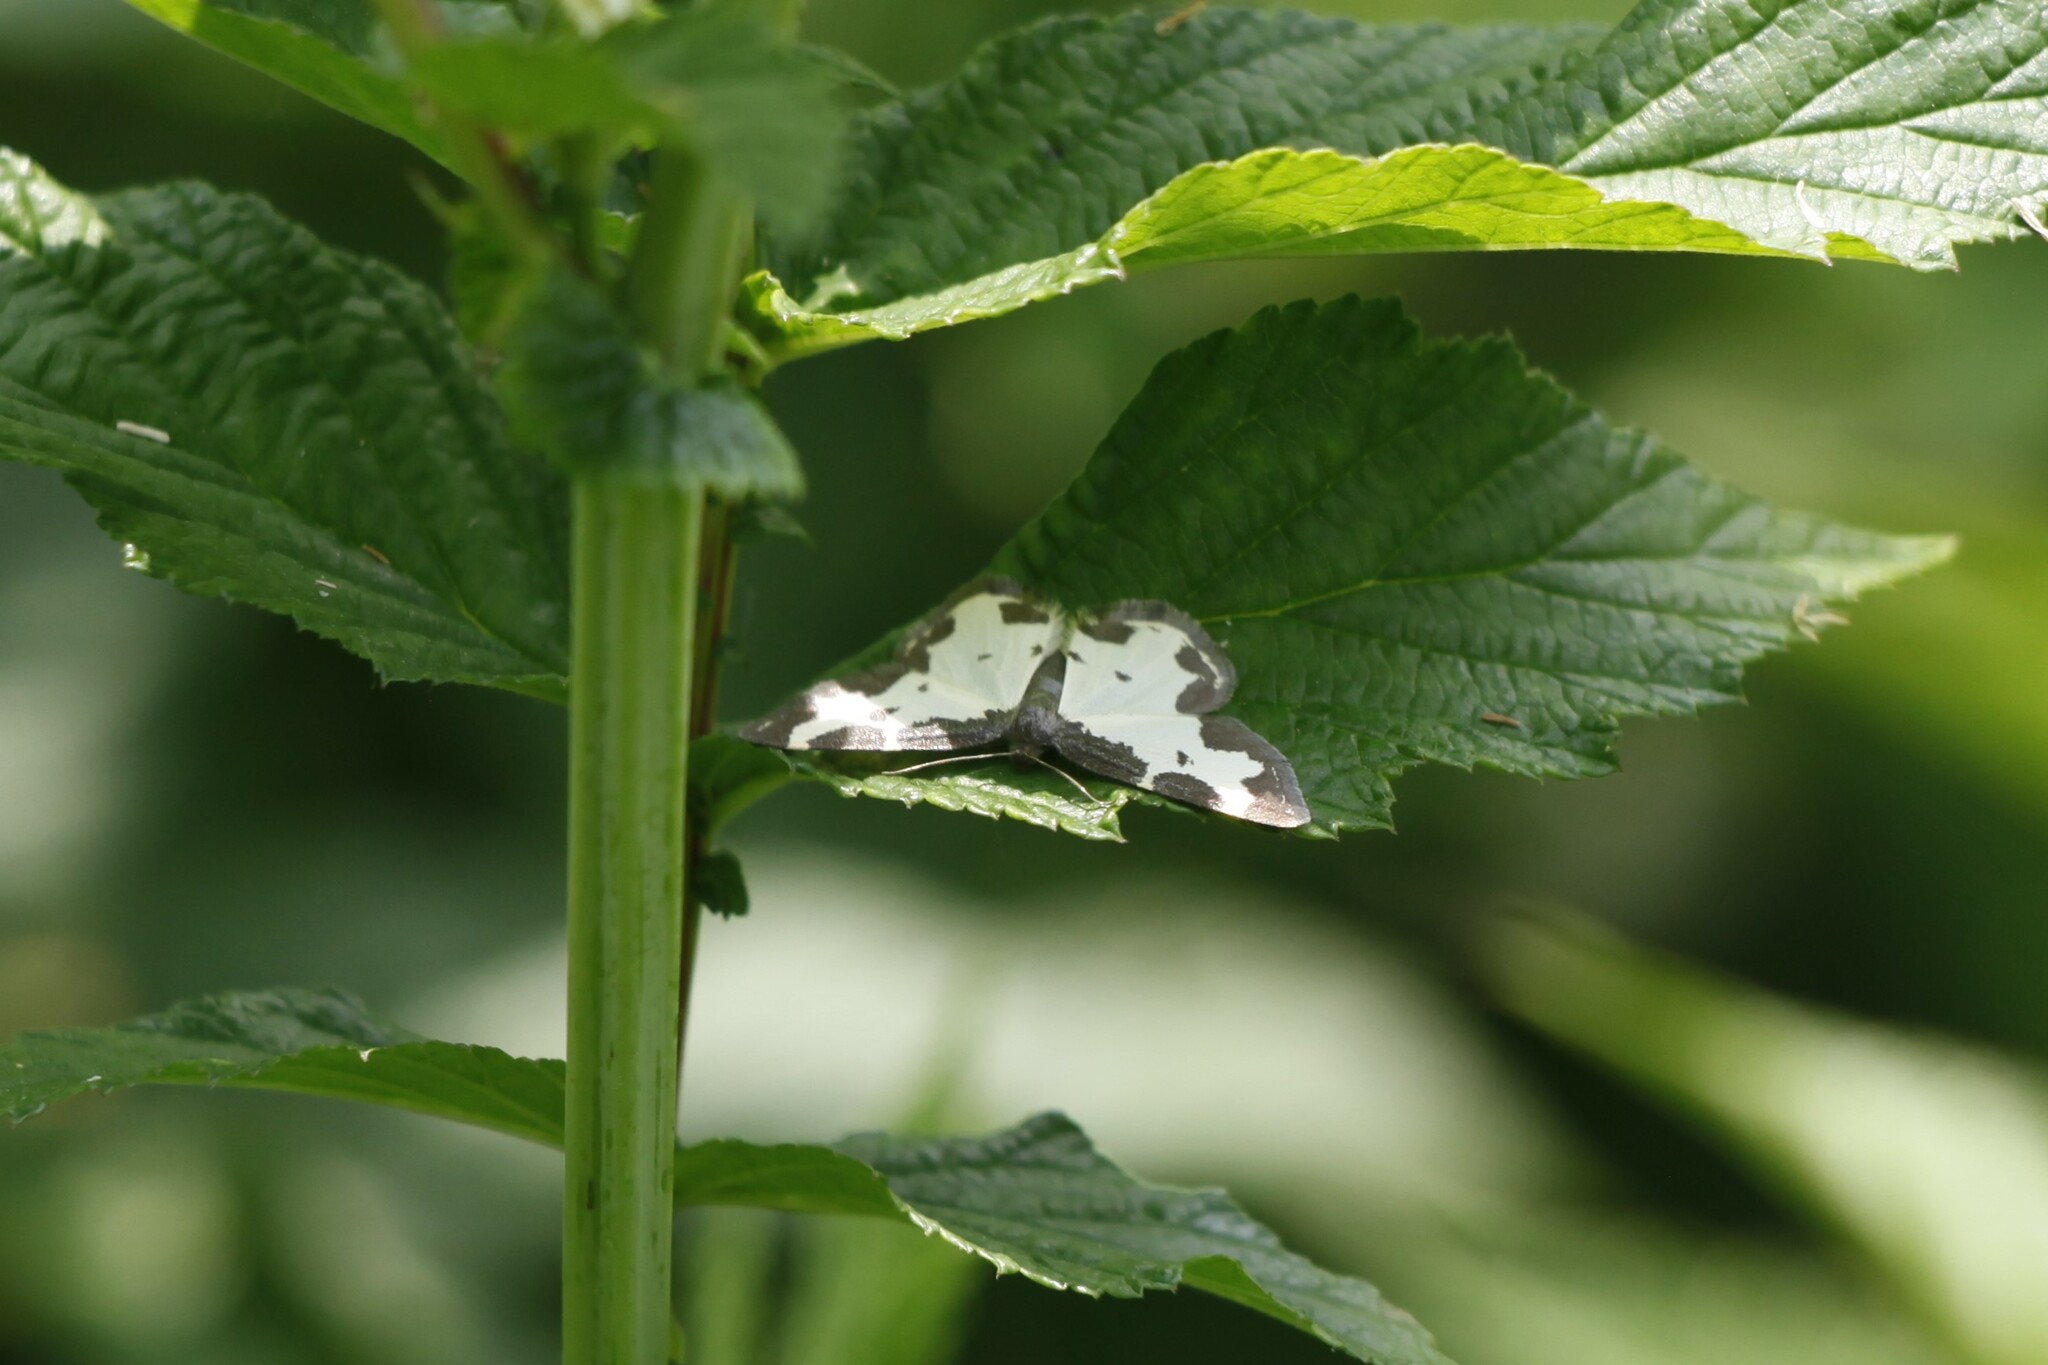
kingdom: Animalia
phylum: Arthropoda
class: Insecta
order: Lepidoptera
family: Geometridae
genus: Lomaspilis
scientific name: Lomaspilis marginata
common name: Clouded border
